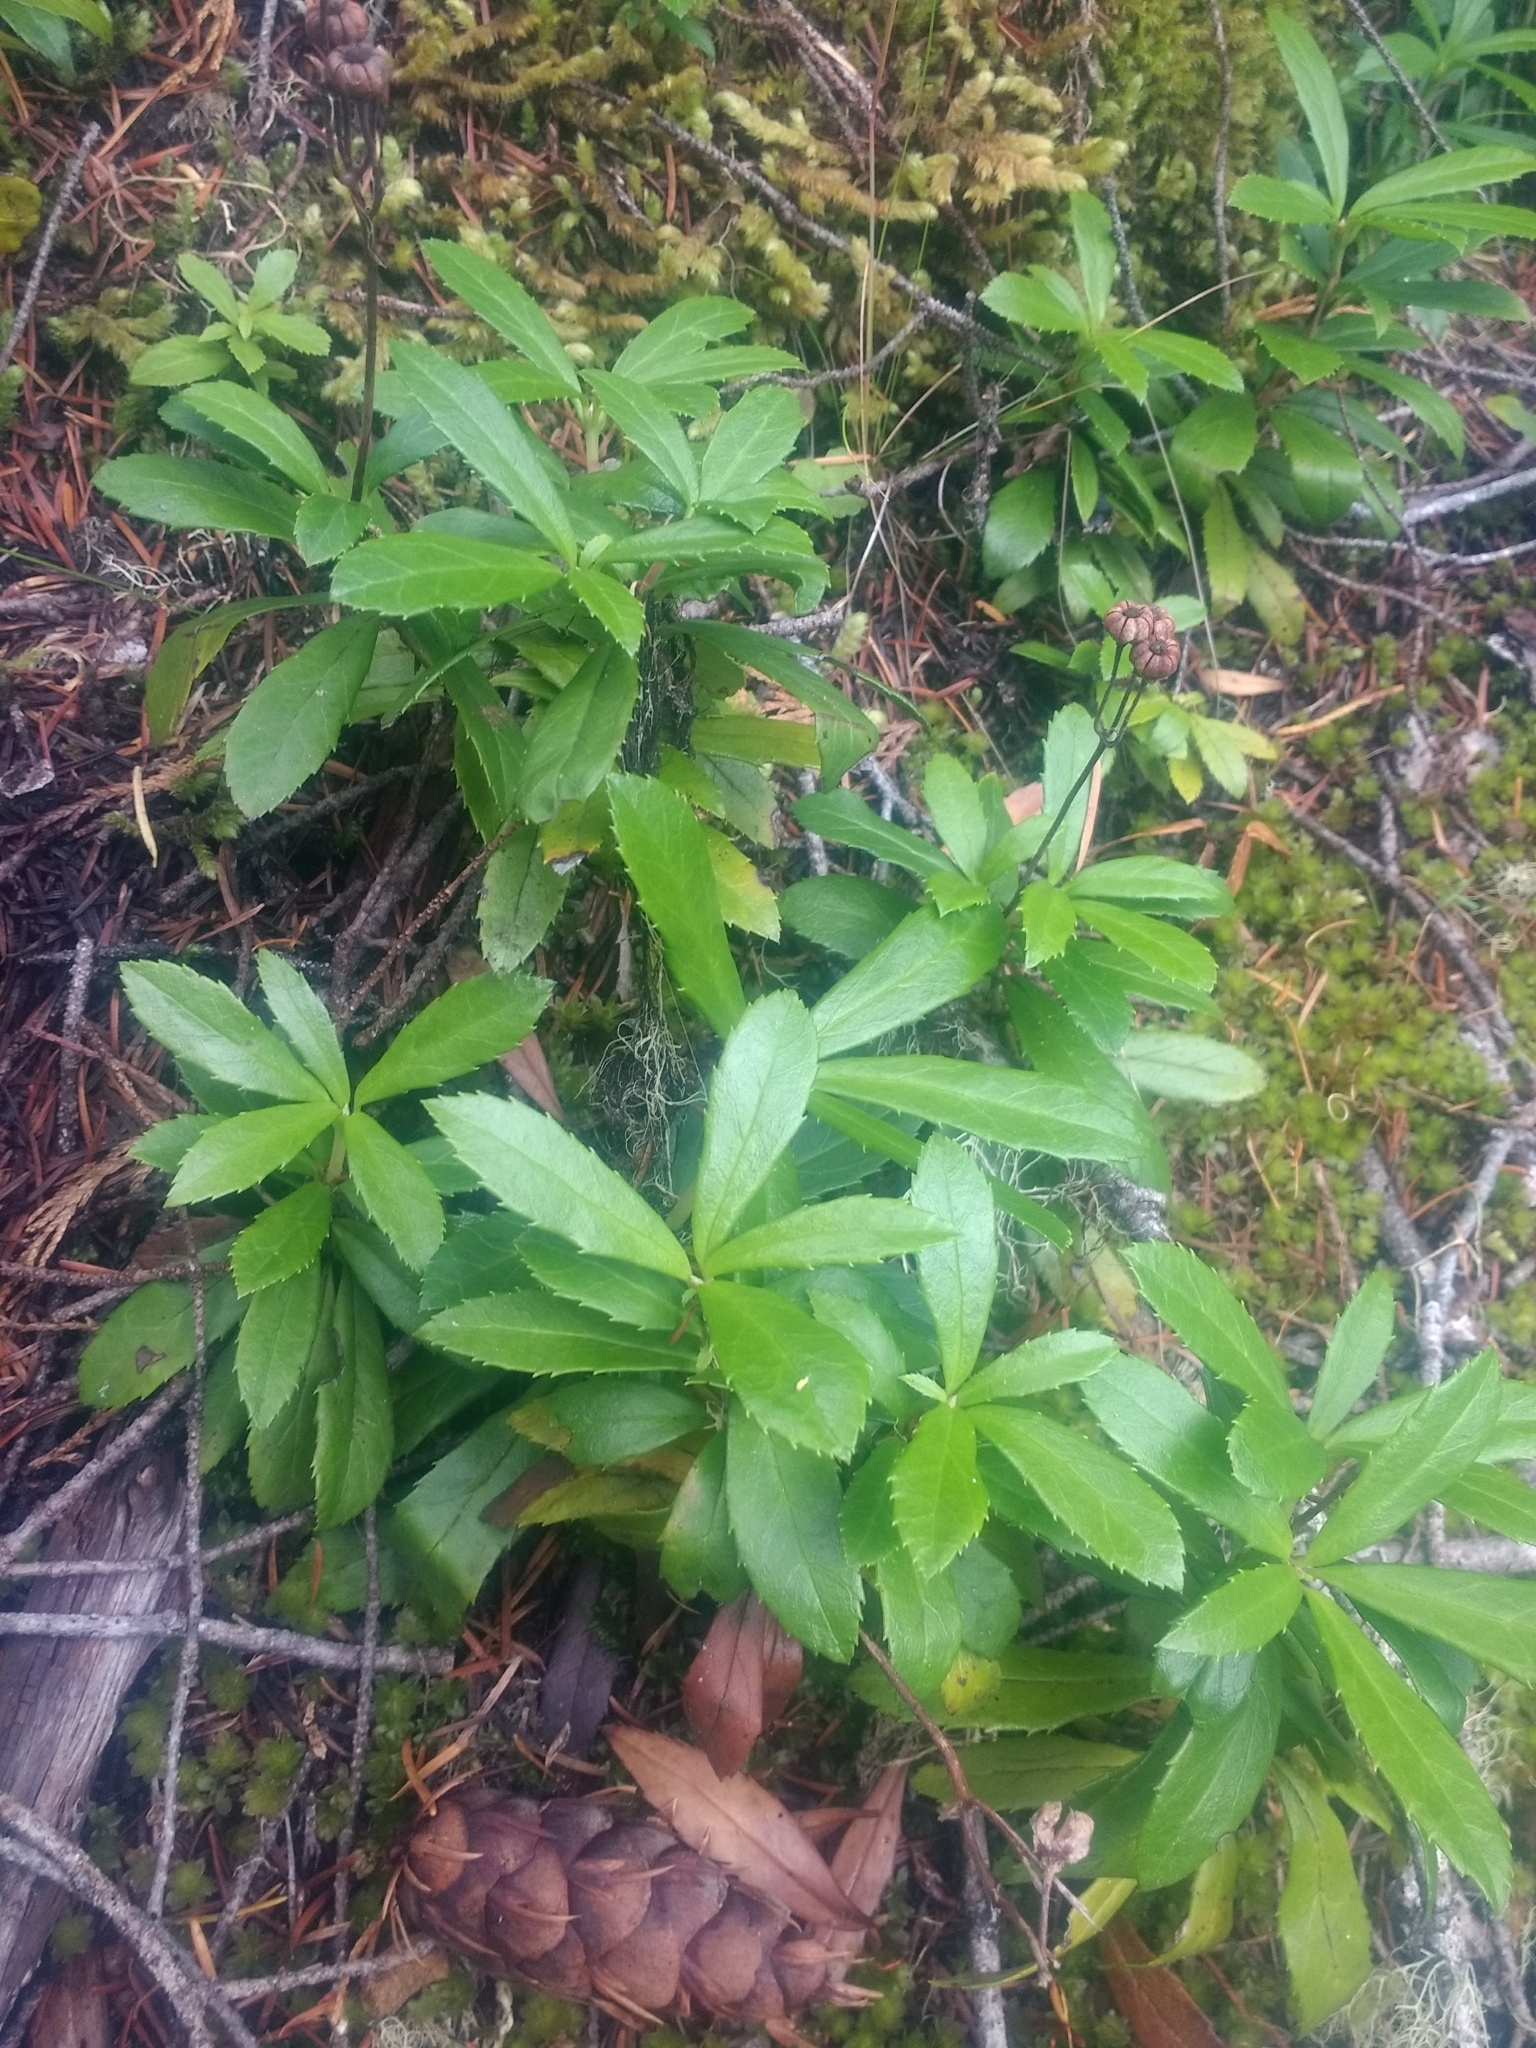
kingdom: Plantae
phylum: Tracheophyta
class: Magnoliopsida
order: Ericales
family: Ericaceae
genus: Chimaphila
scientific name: Chimaphila umbellata
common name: Pipsissewa
